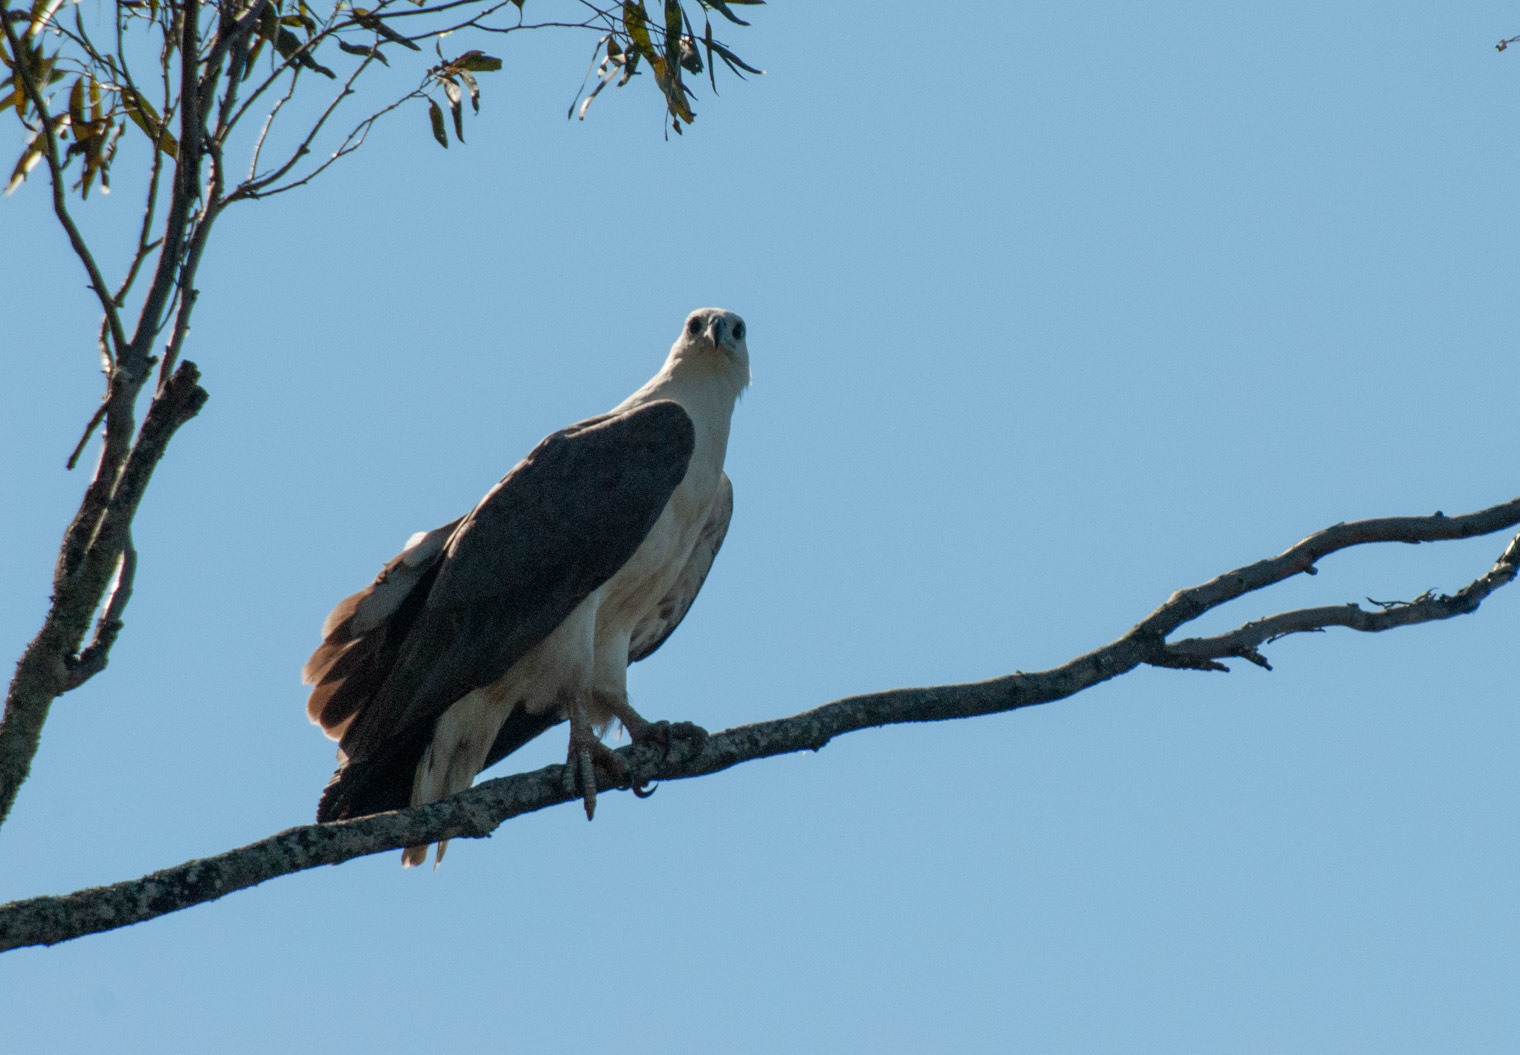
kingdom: Animalia
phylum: Chordata
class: Aves
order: Accipitriformes
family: Accipitridae
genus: Haliaeetus
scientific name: Haliaeetus leucogaster
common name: White-bellied sea eagle
